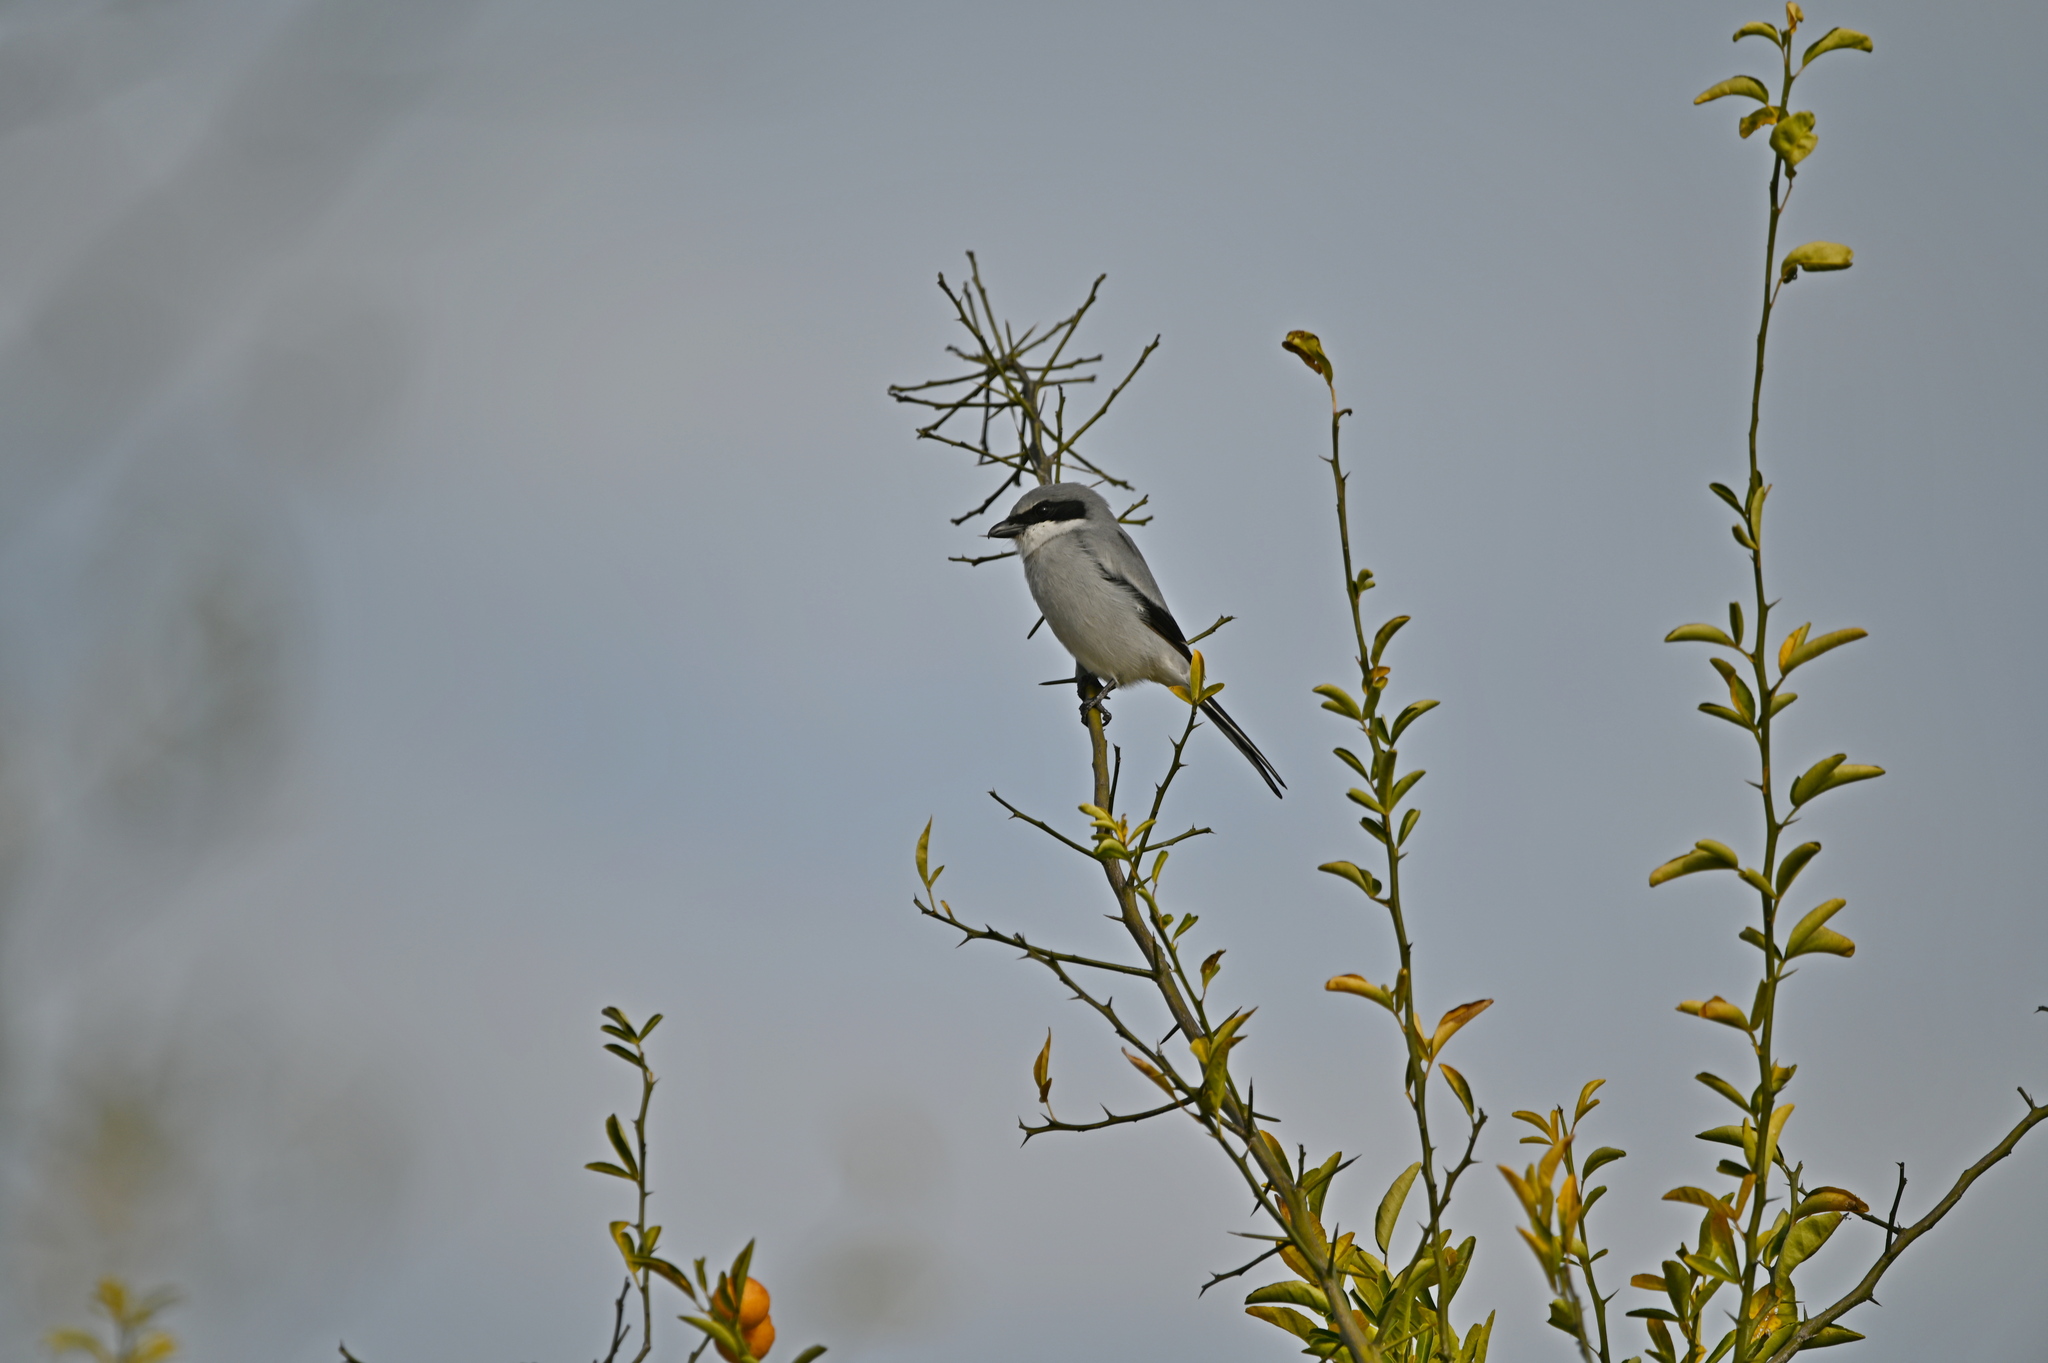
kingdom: Animalia
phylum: Chordata
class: Aves
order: Passeriformes
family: Laniidae
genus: Lanius
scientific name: Lanius ludovicianus
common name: Loggerhead shrike
